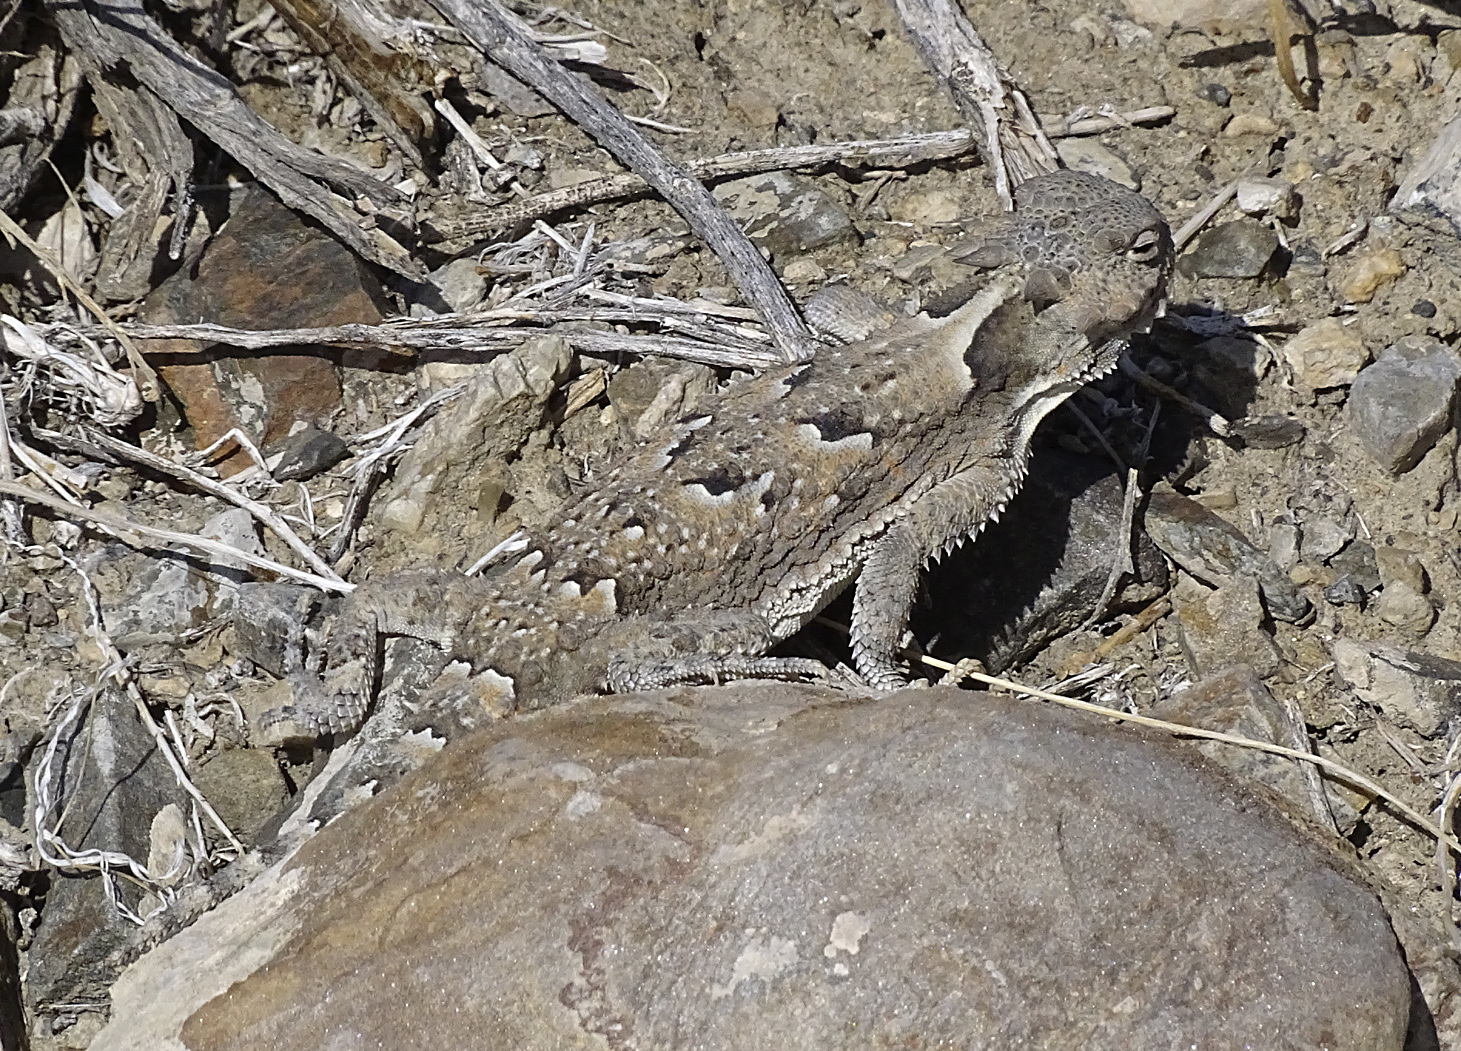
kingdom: Animalia
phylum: Chordata
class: Squamata
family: Phrynosomatidae
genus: Phrynosoma
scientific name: Phrynosoma platyrhinos
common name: Desert horned lizard
